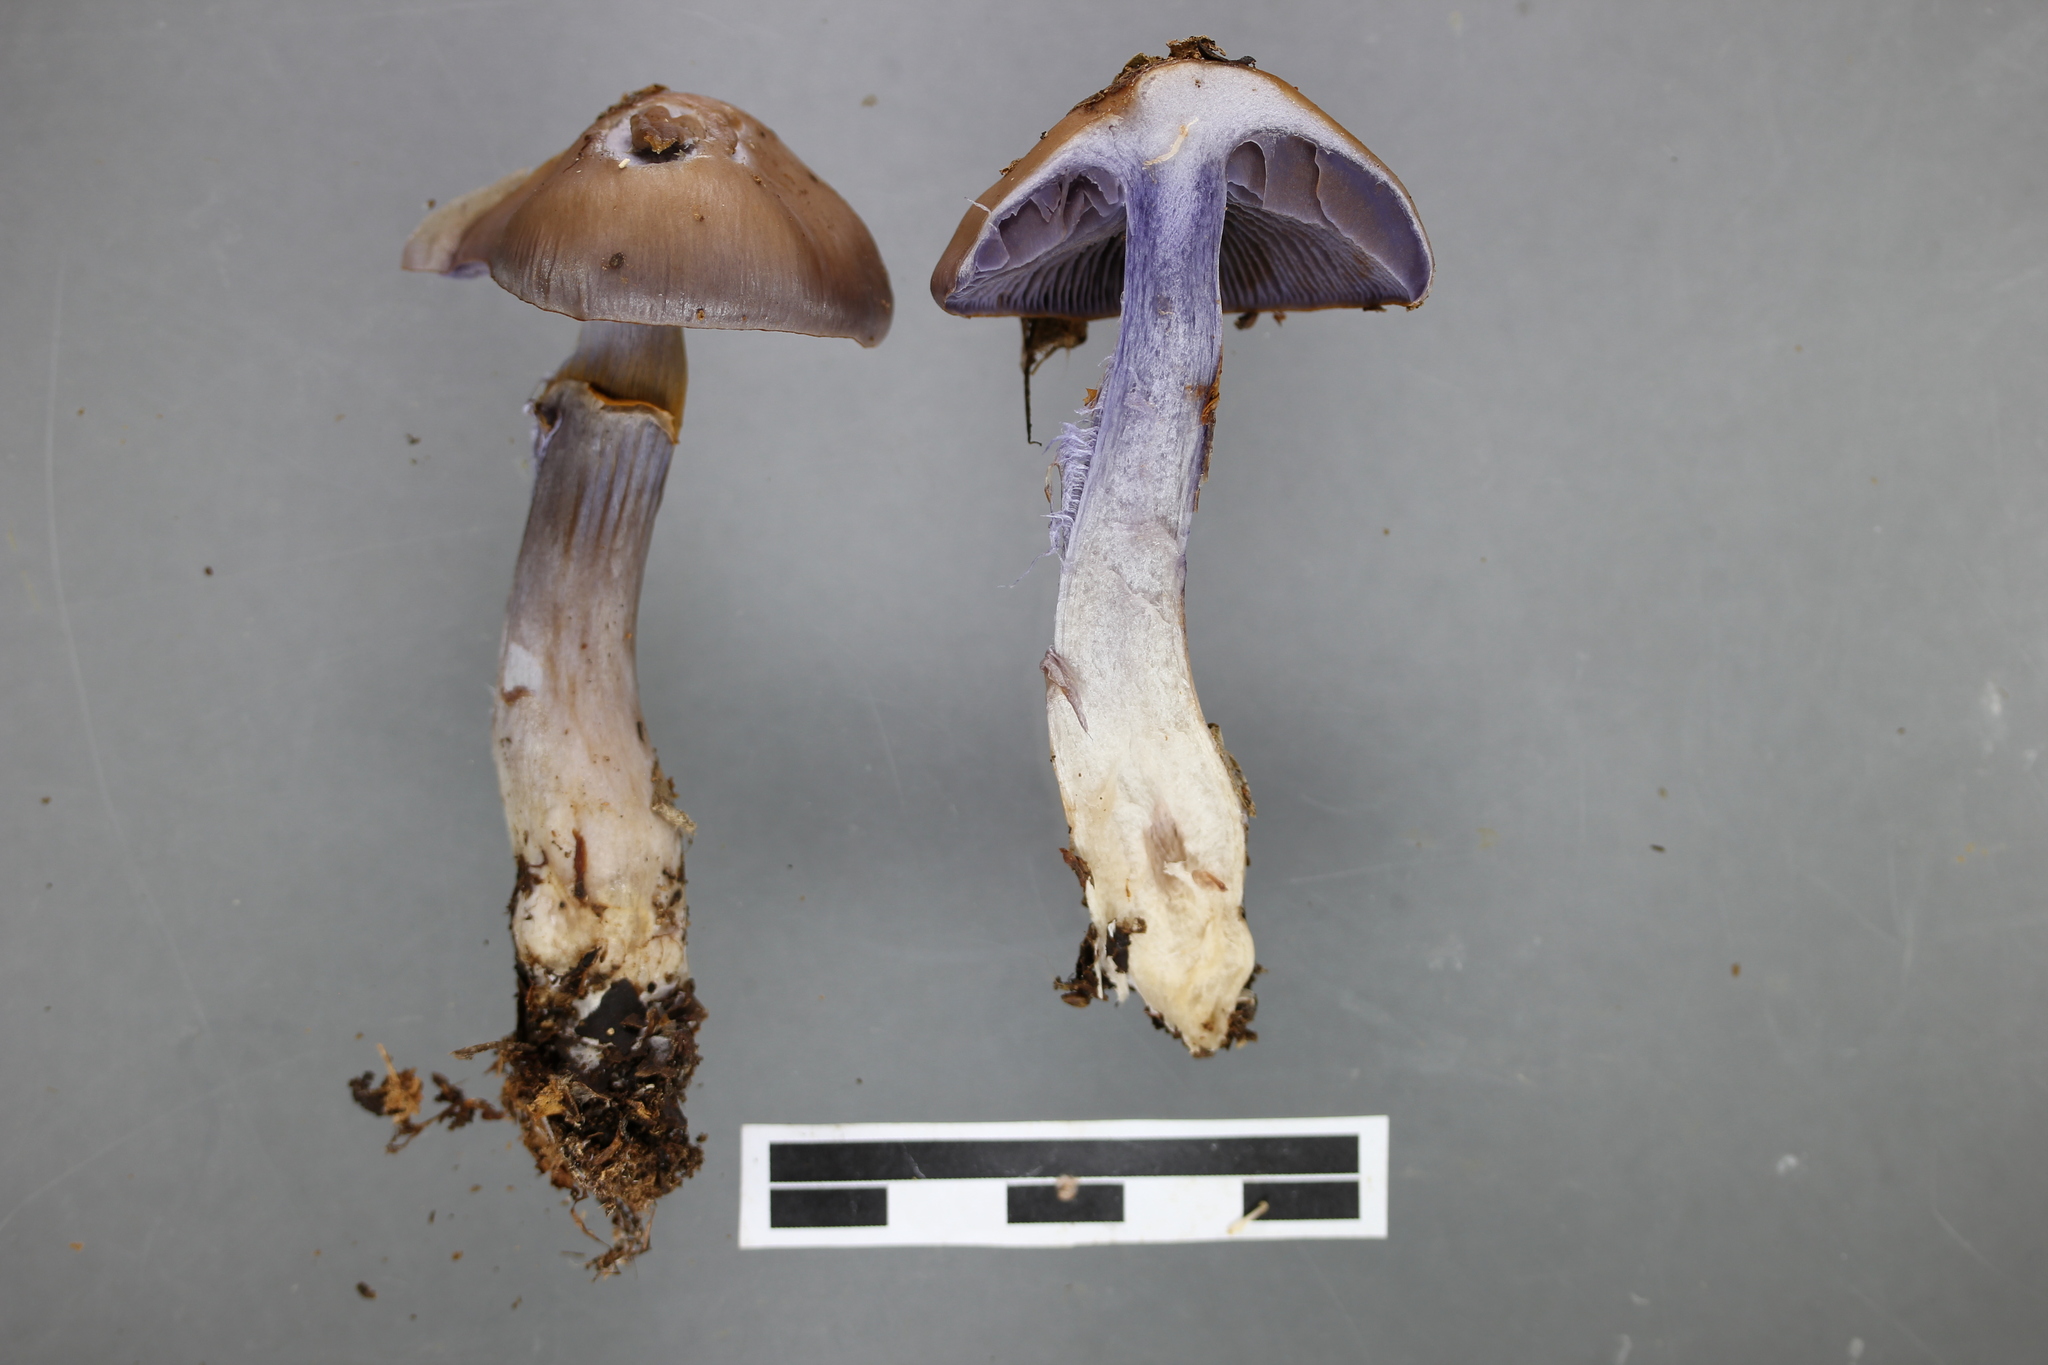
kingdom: Fungi
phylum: Basidiomycota
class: Agaricomycetes
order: Agaricales
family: Cortinariaceae
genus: Cortinarius
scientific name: Cortinarius taylorianus
